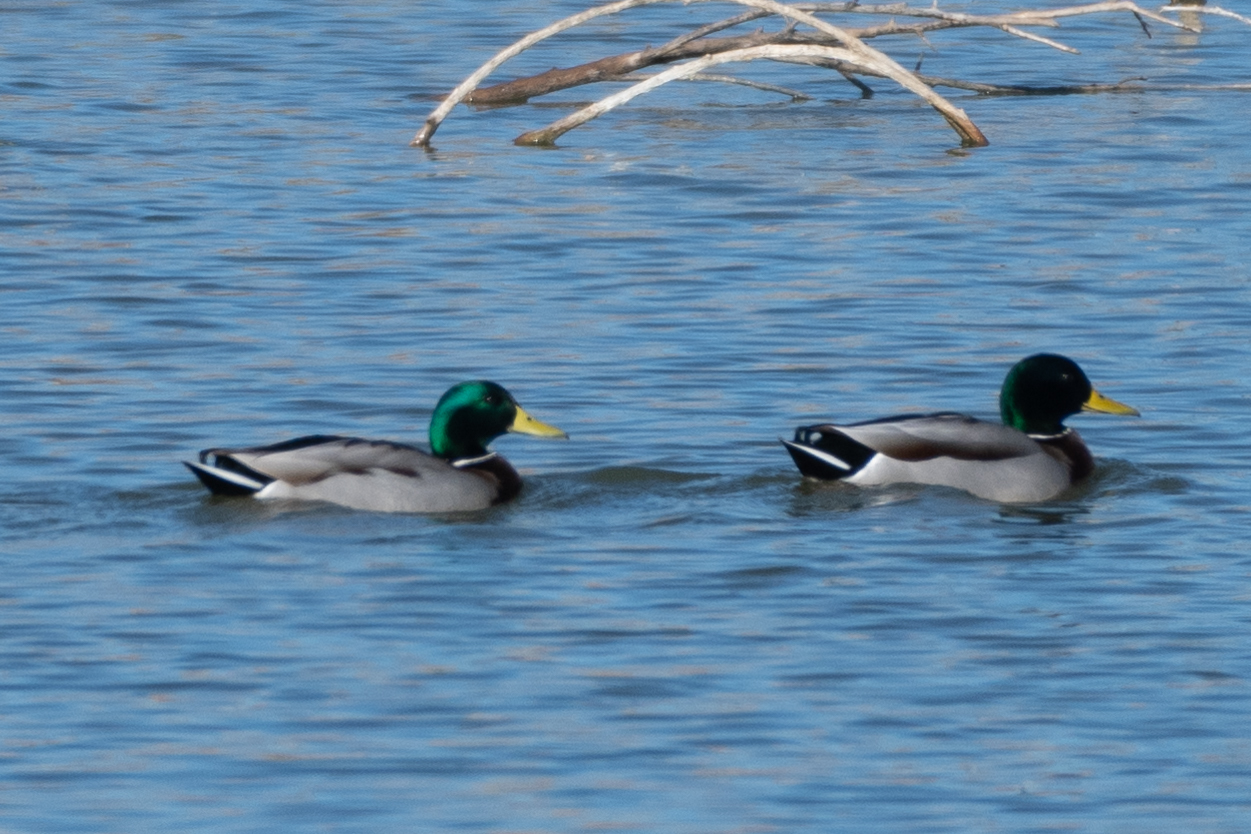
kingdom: Animalia
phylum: Chordata
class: Aves
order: Anseriformes
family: Anatidae
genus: Anas
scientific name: Anas platyrhynchos
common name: Mallard
